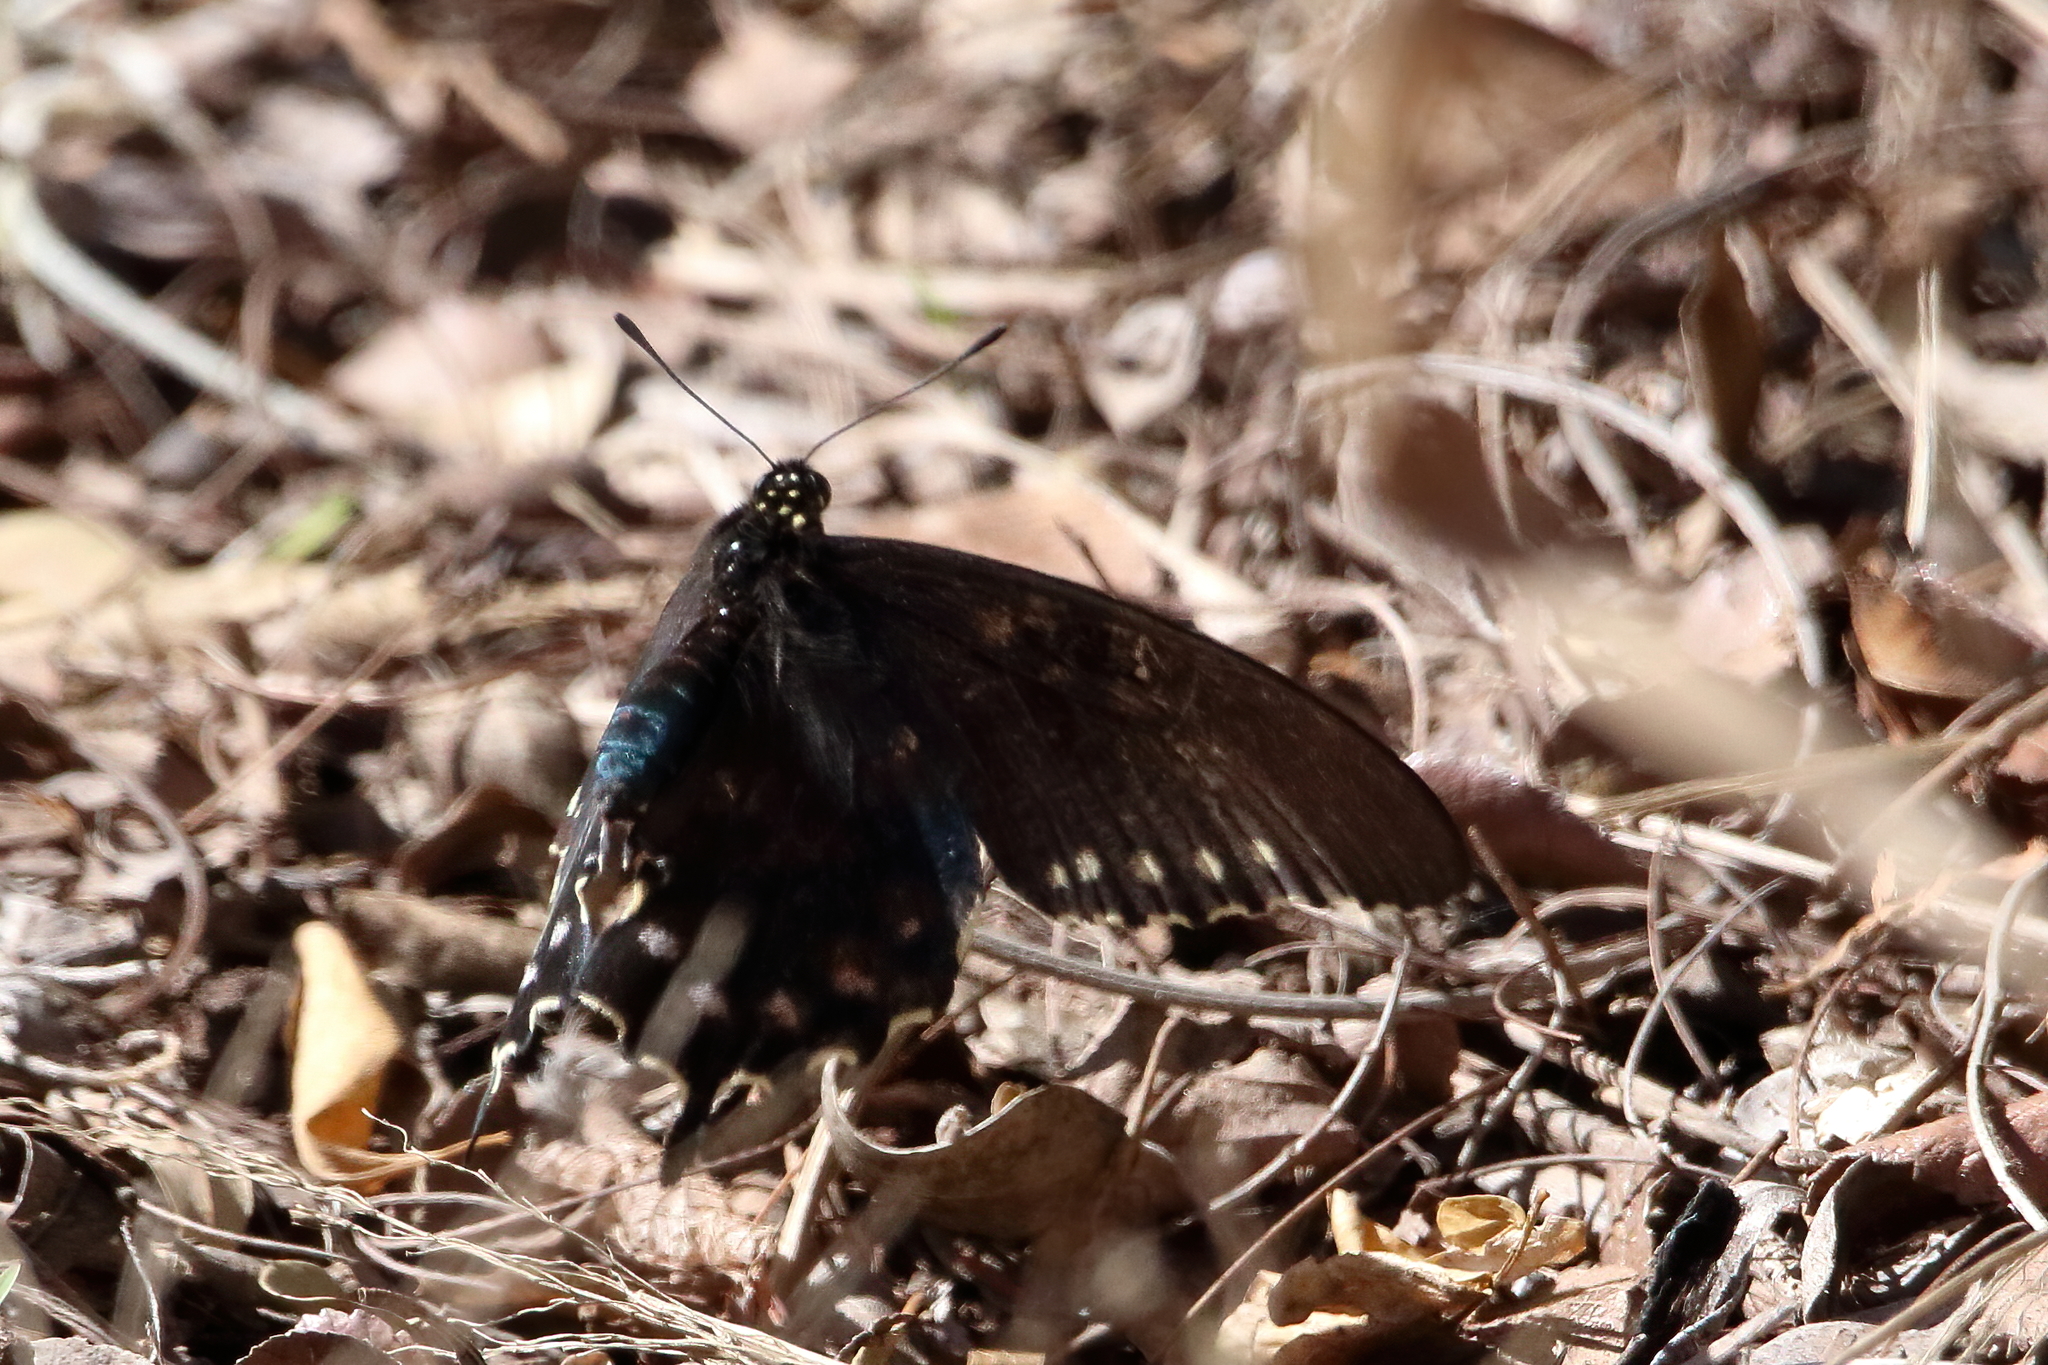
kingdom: Animalia
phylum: Arthropoda
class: Insecta
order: Lepidoptera
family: Papilionidae
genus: Battus
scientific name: Battus philenor
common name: Pipevine swallowtail
